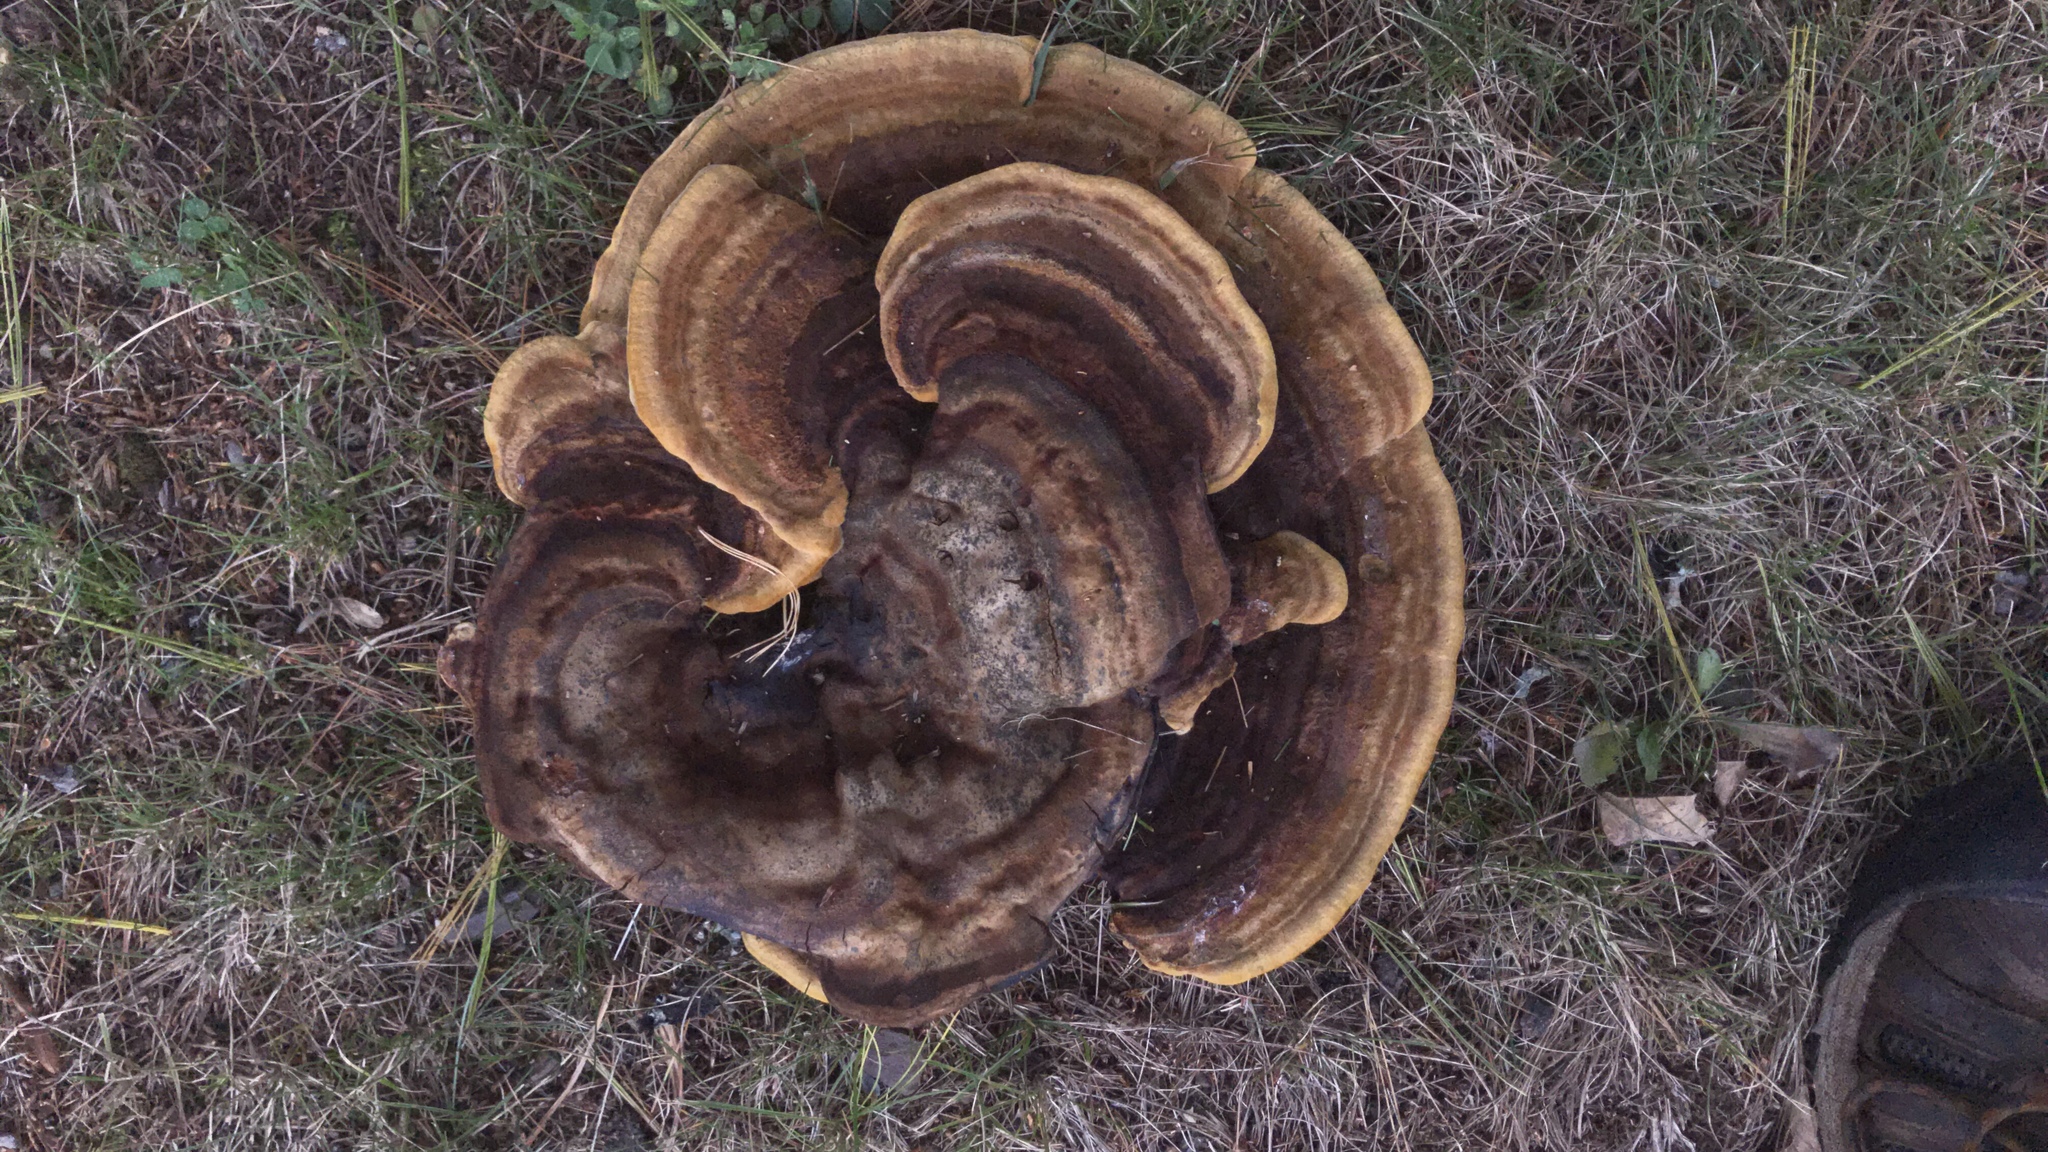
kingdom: Fungi
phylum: Basidiomycota
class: Agaricomycetes
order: Polyporales
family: Laetiporaceae
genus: Phaeolus
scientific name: Phaeolus schweinitzii
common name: Dyer's mazegill
